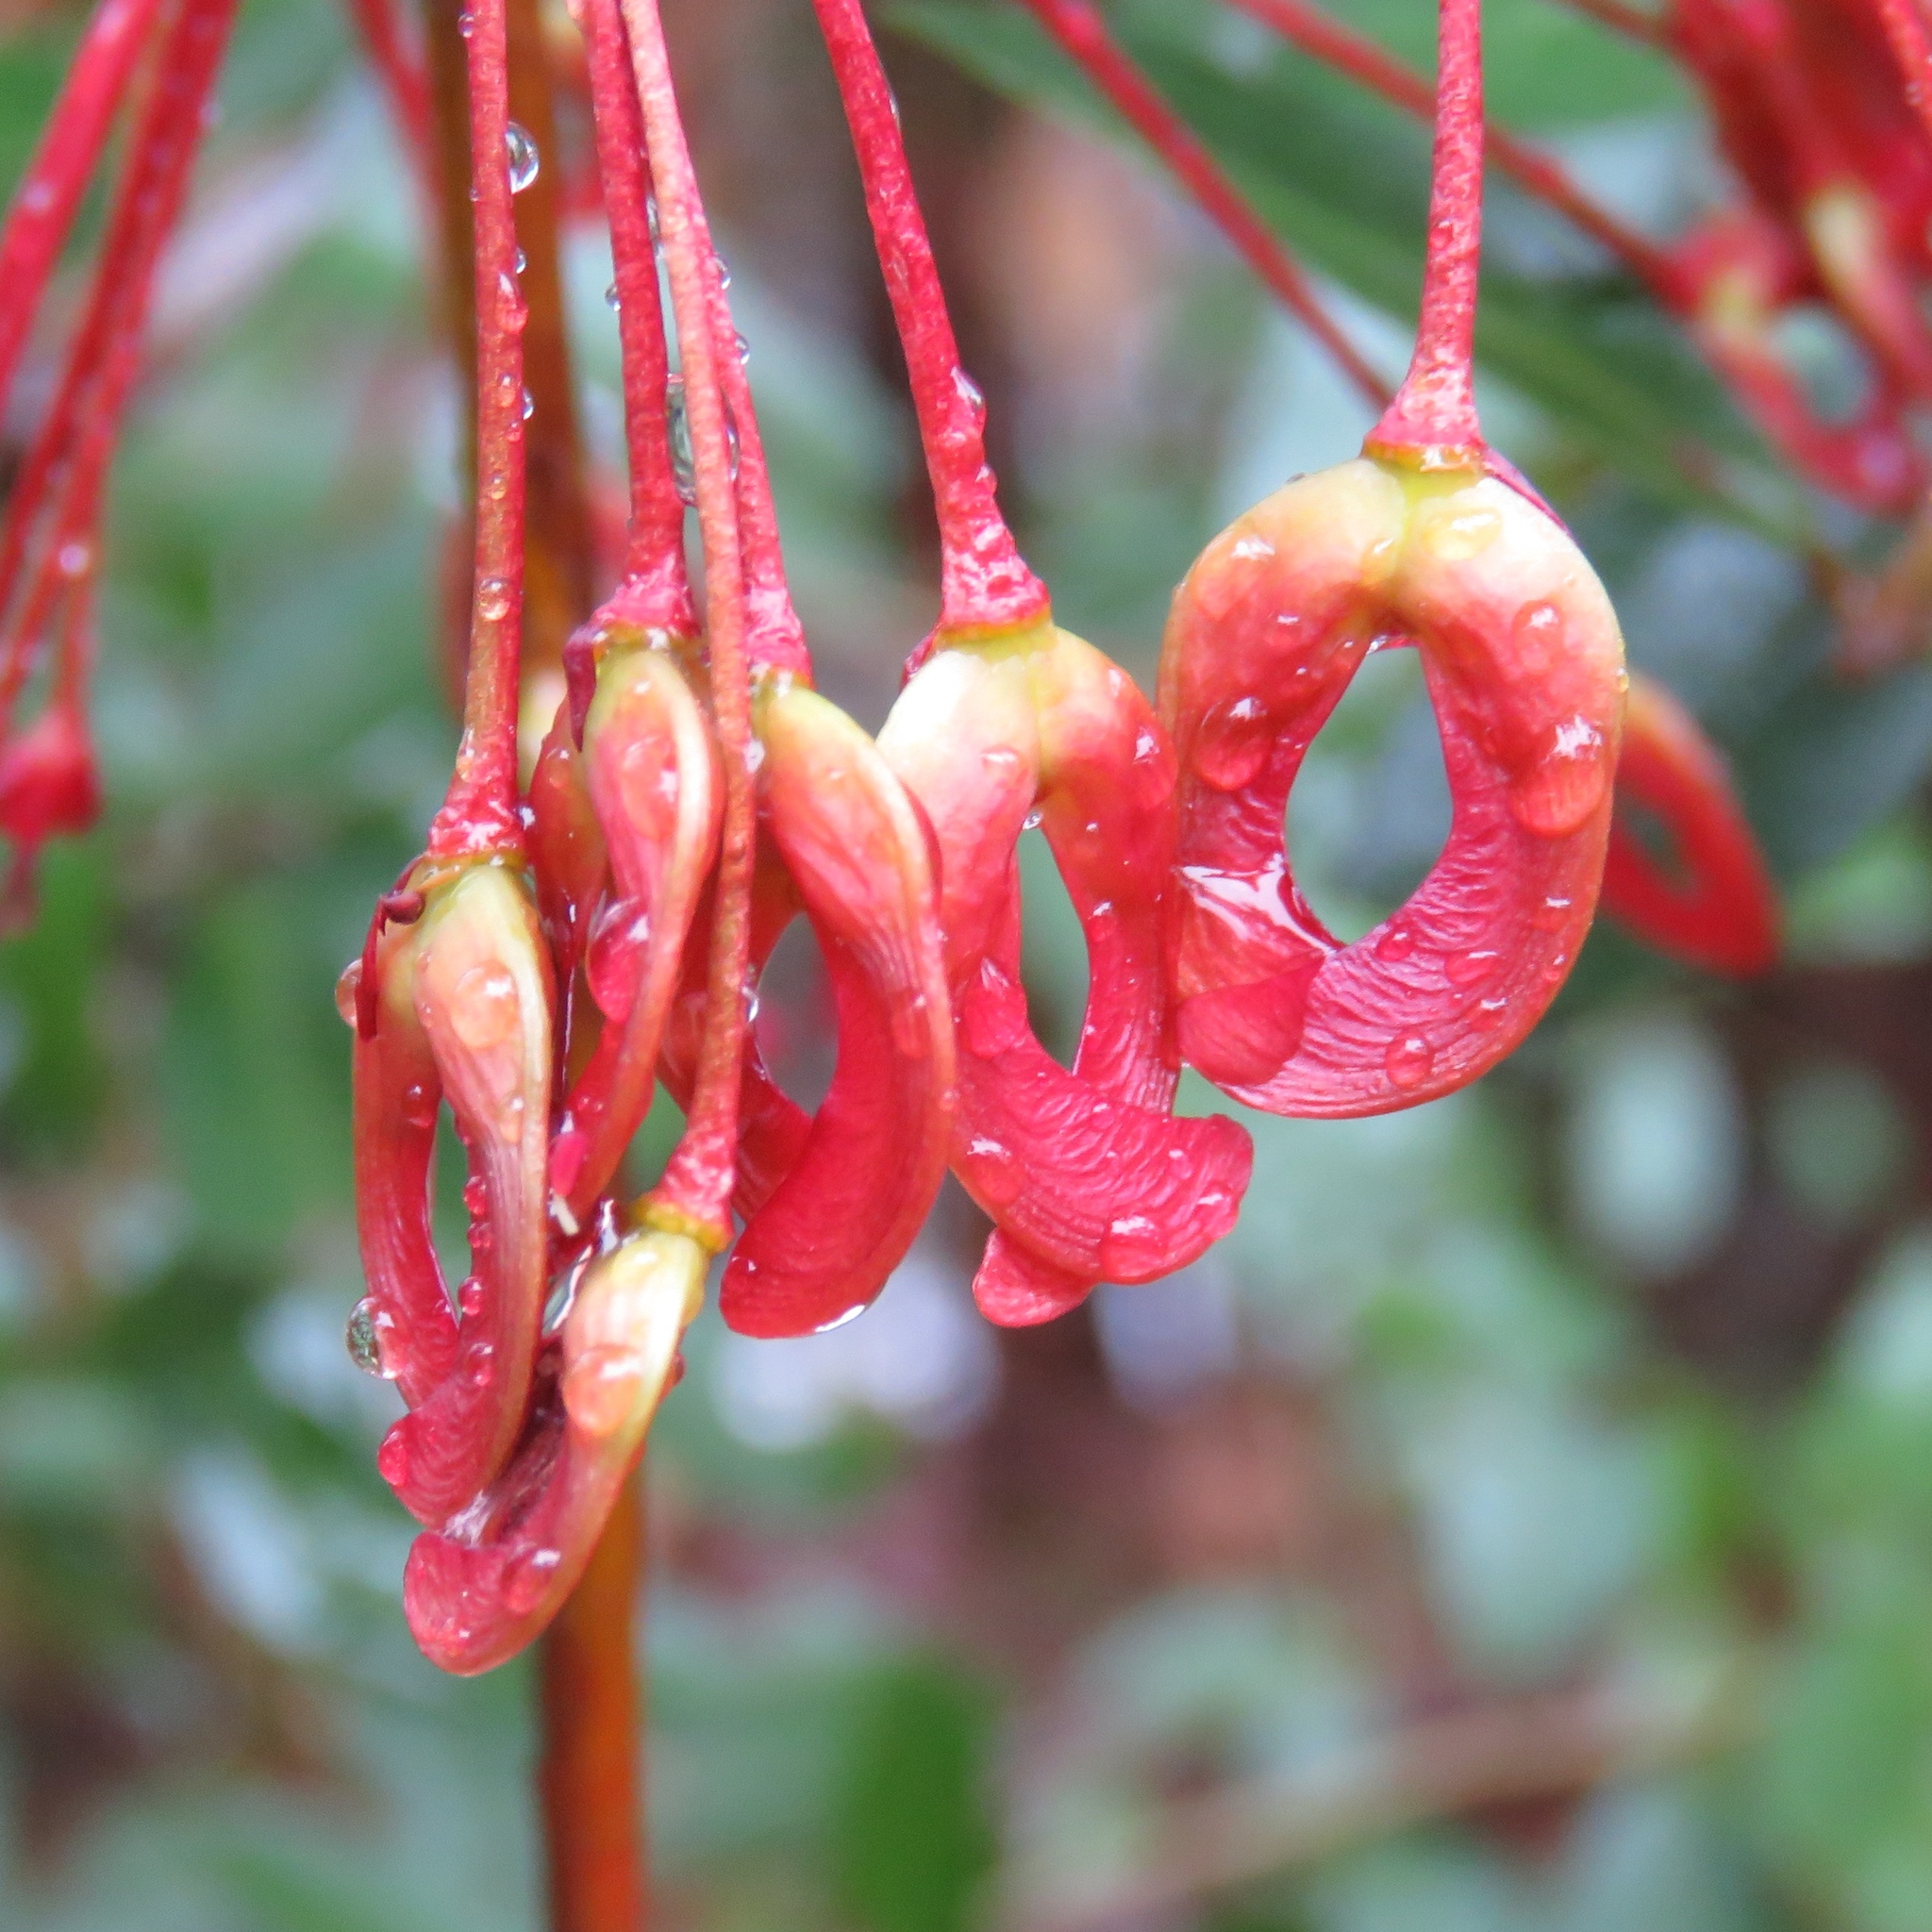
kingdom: Plantae
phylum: Tracheophyta
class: Magnoliopsida
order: Sapindales
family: Sapindaceae
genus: Acer
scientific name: Acer rubrum
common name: Red maple
